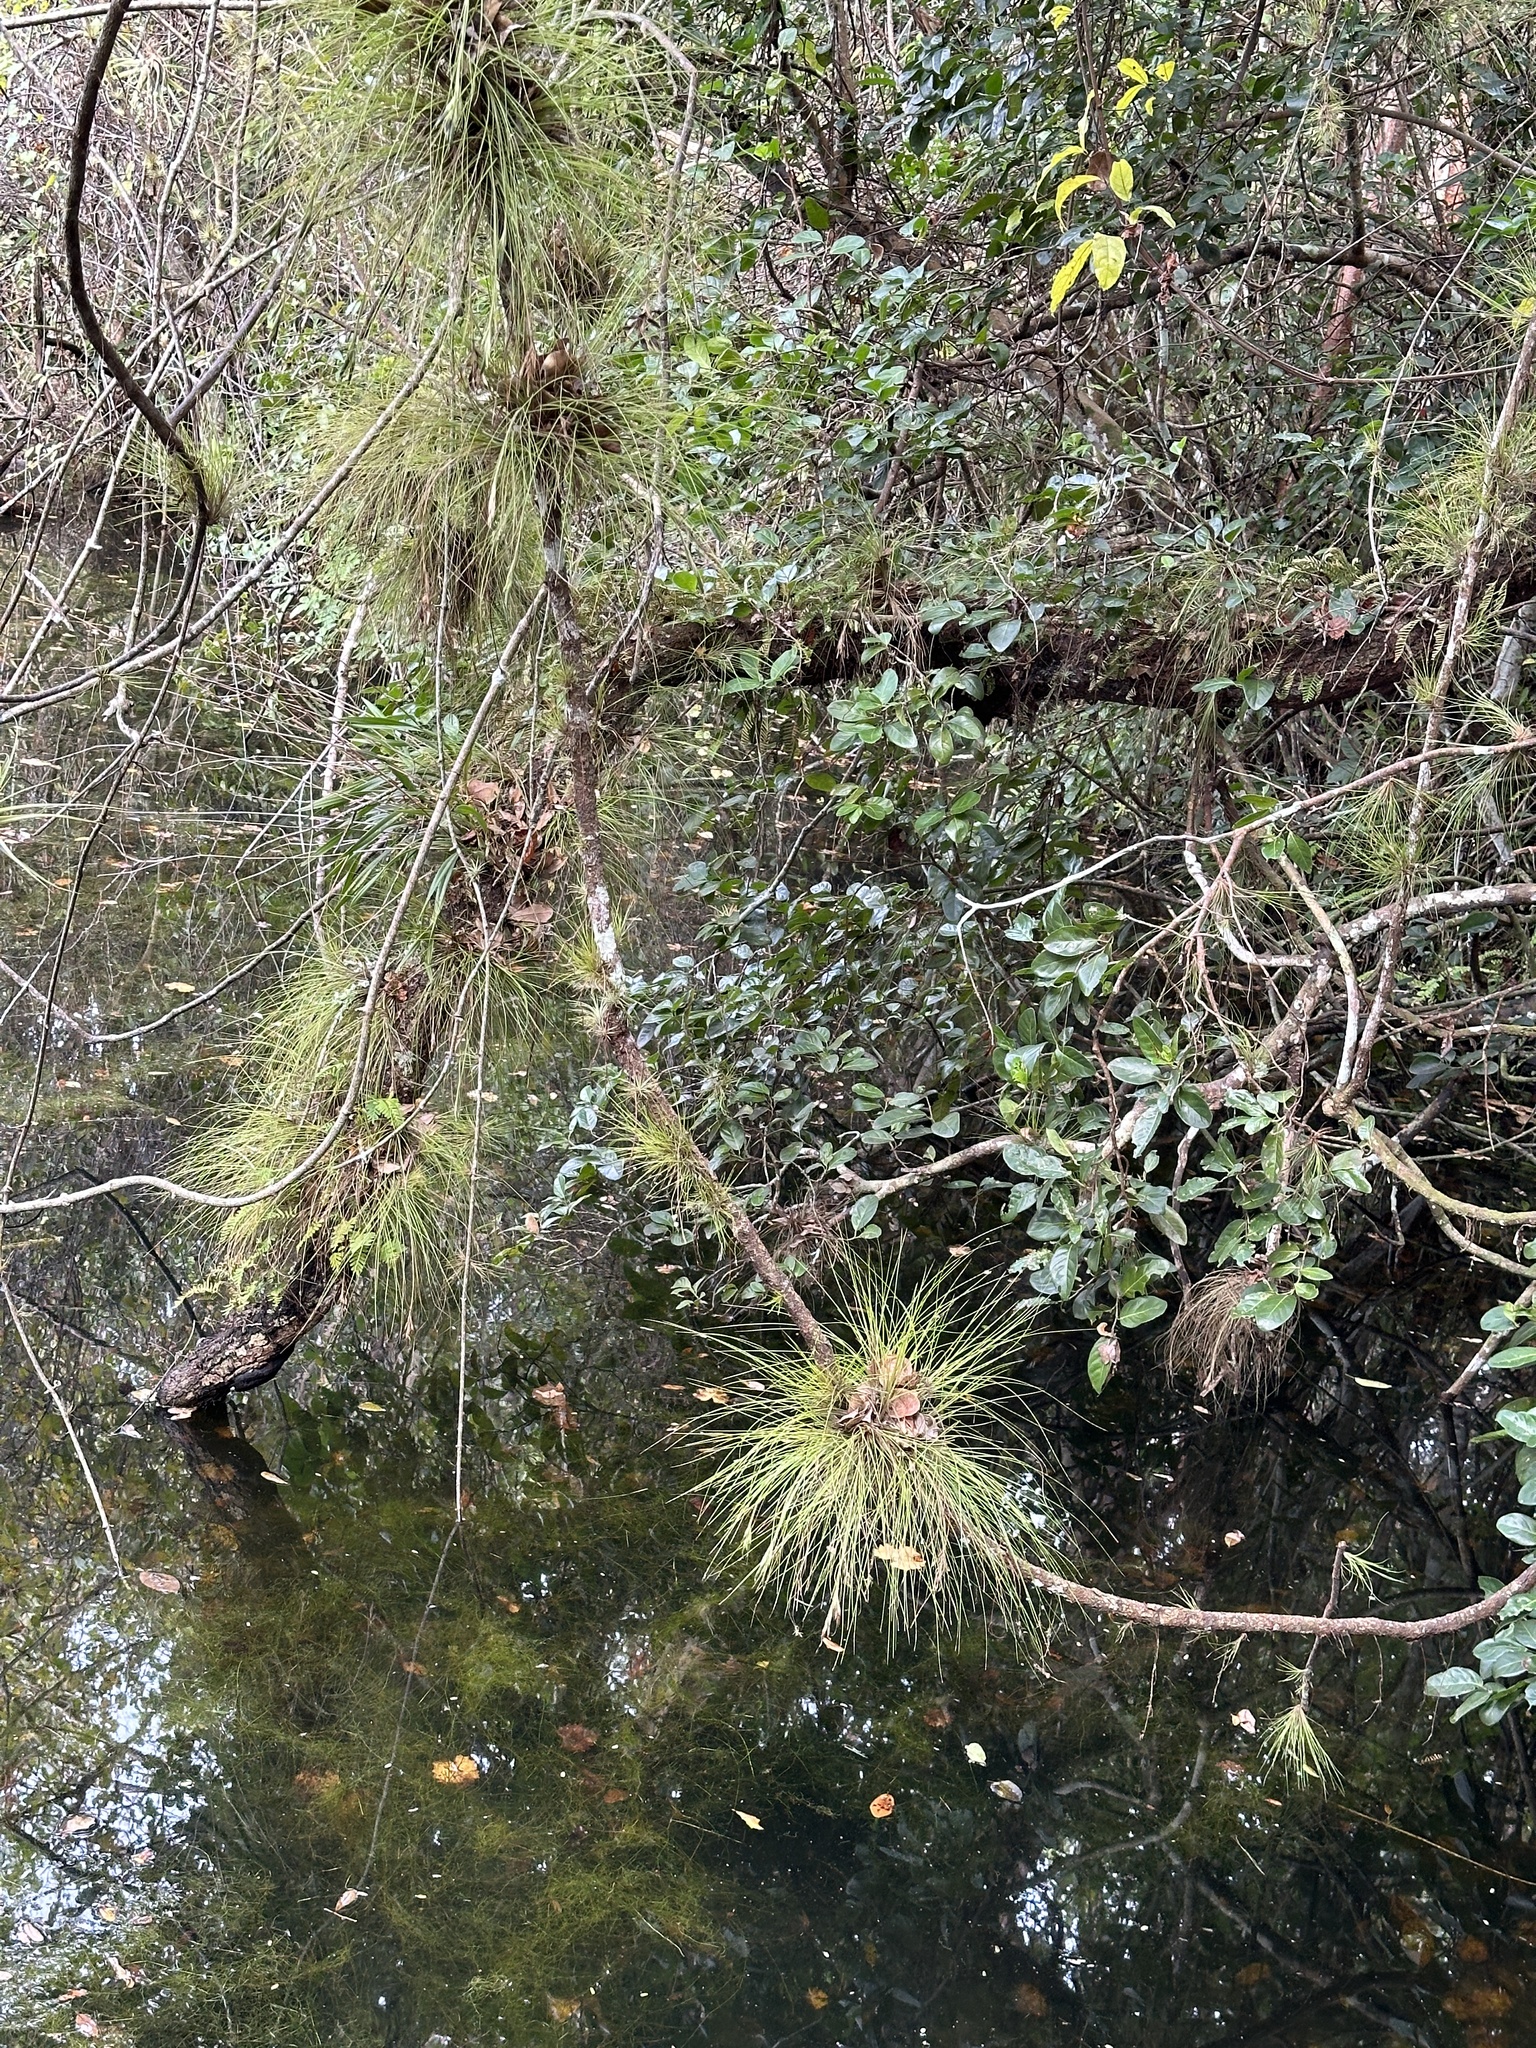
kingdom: Plantae
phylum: Tracheophyta
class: Liliopsida
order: Poales
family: Bromeliaceae
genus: Tillandsia
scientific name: Tillandsia setacea
